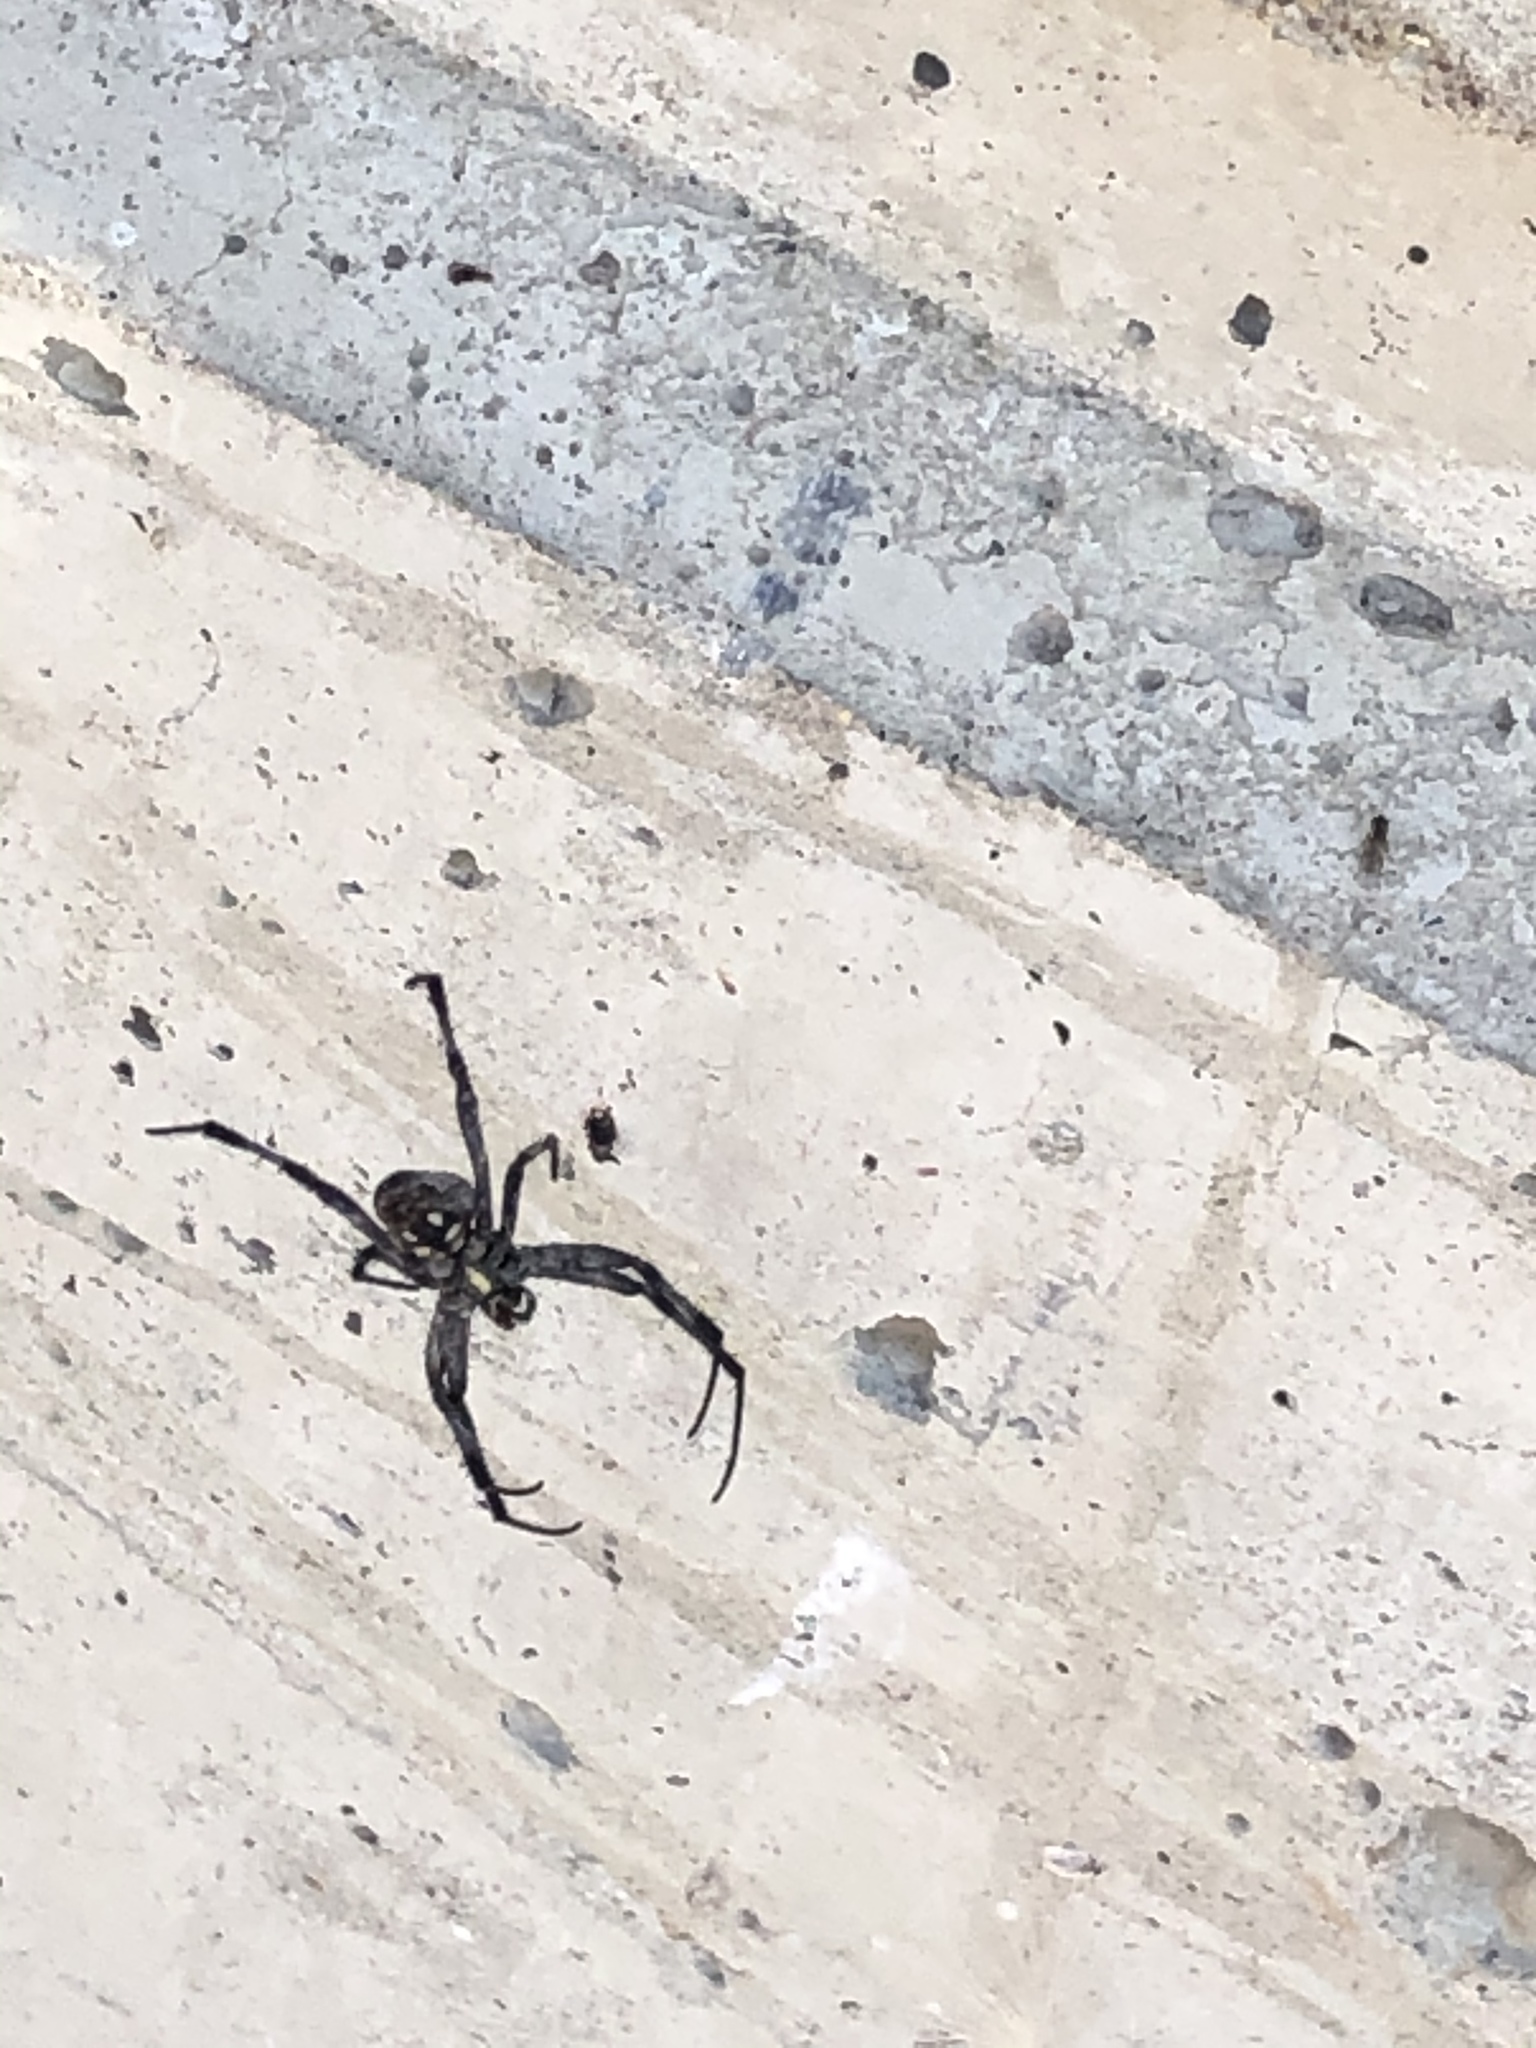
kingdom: Animalia
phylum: Arthropoda
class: Arachnida
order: Araneae
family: Araneidae
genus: Neoscona
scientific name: Neoscona oaxacensis
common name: Orb weavers
